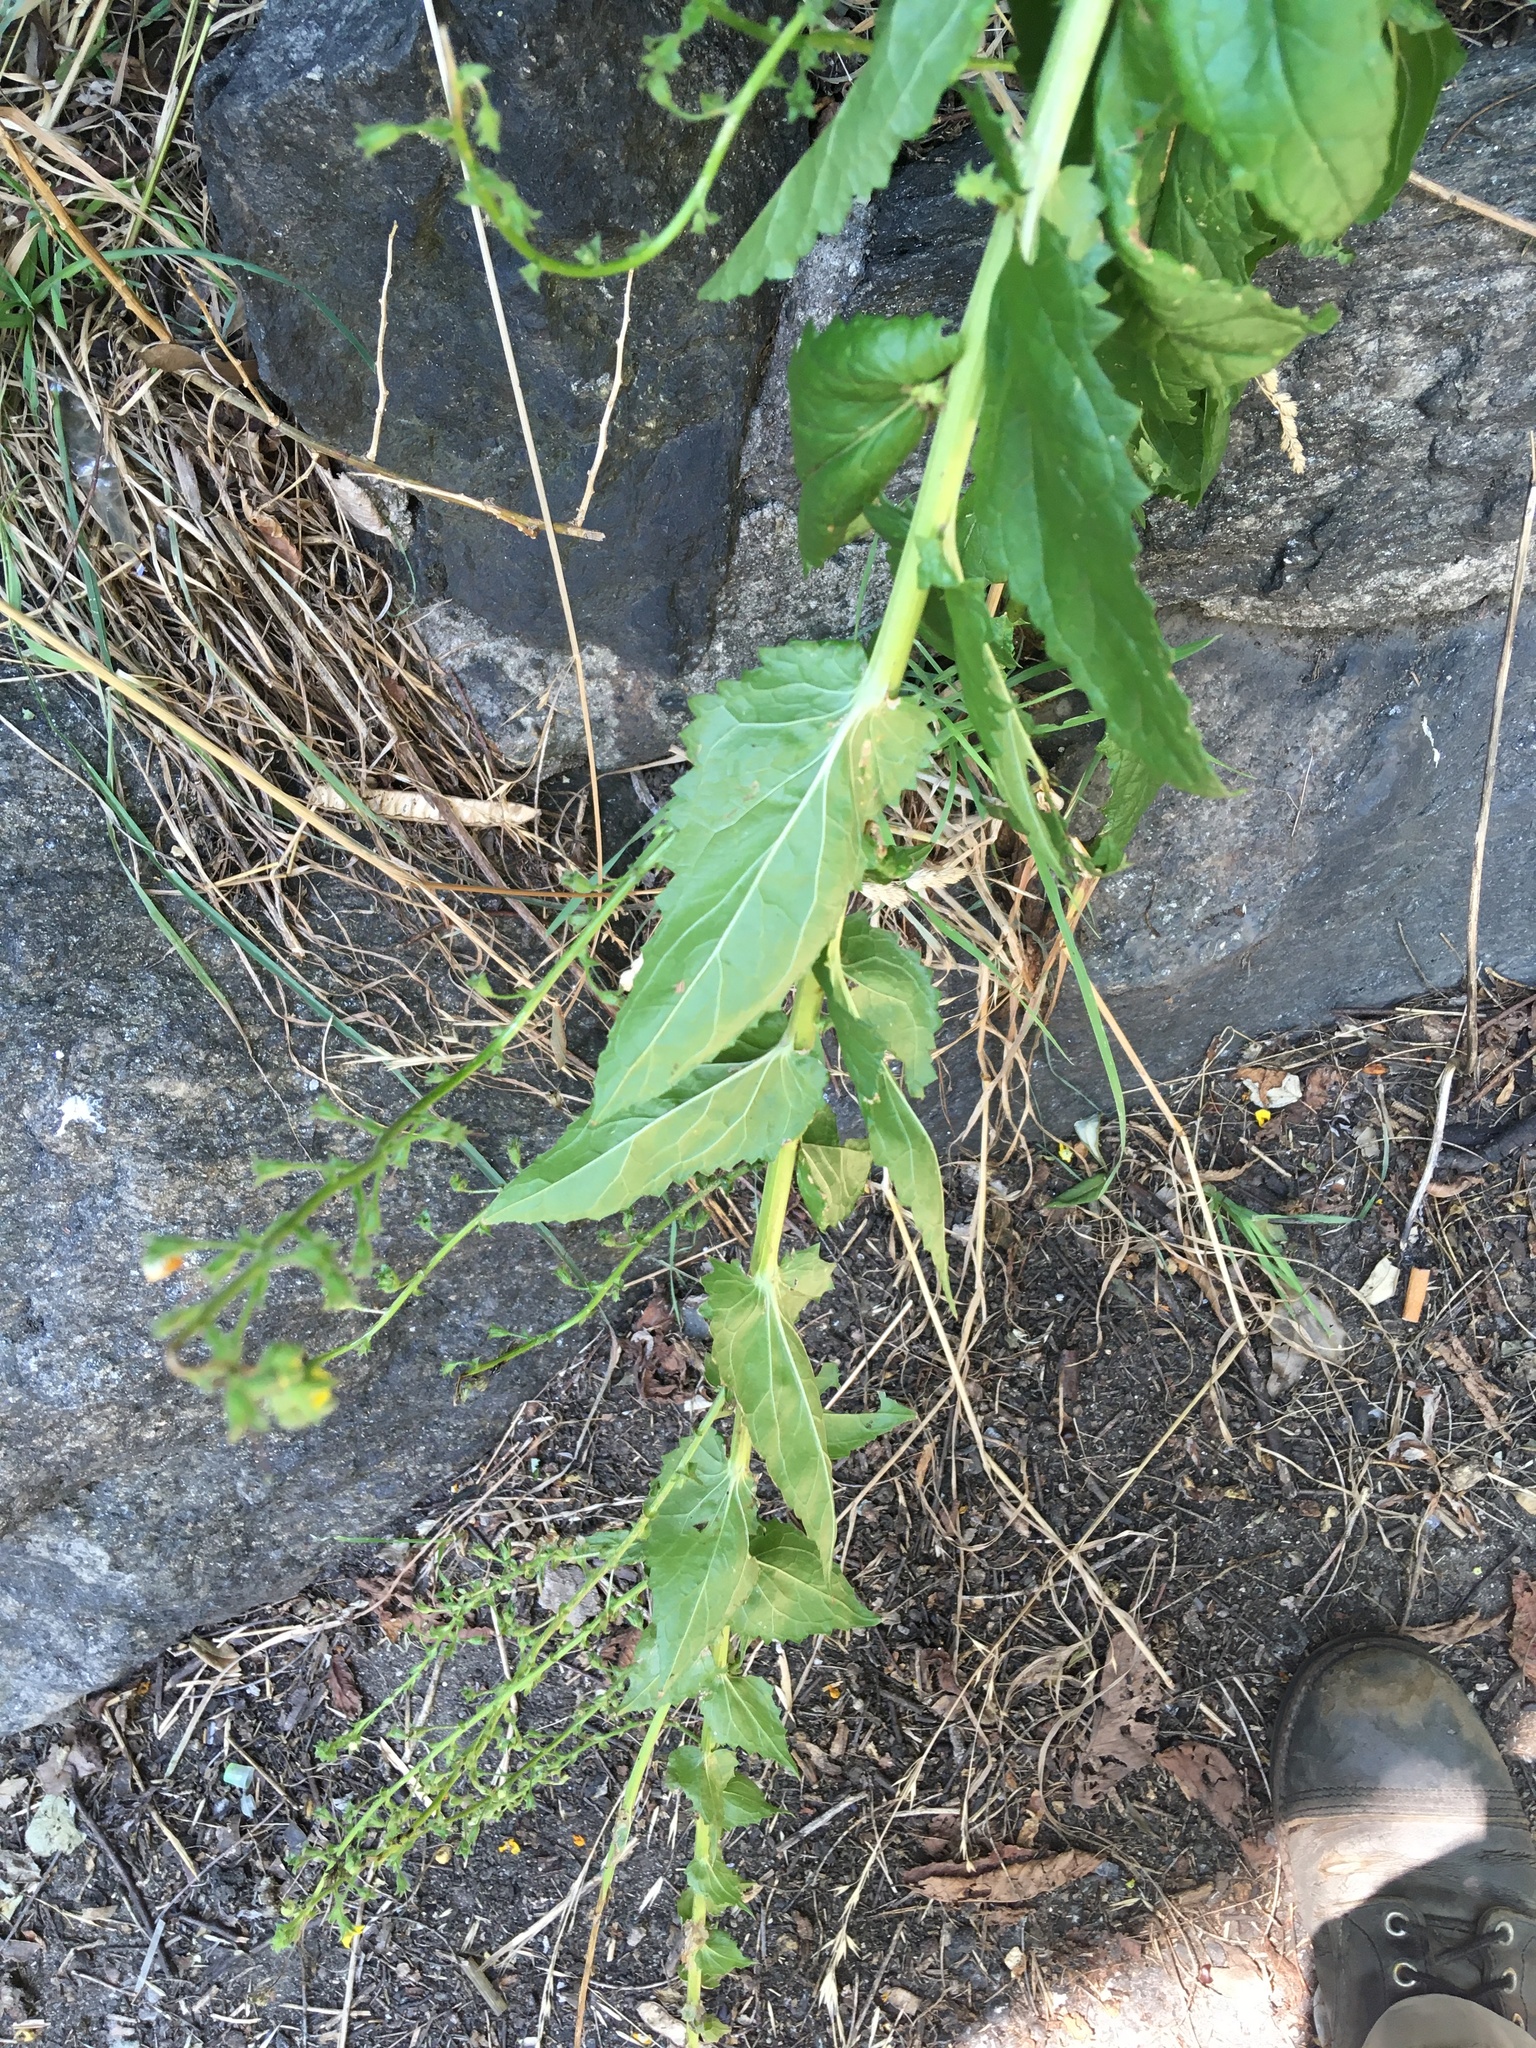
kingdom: Plantae
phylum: Tracheophyta
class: Magnoliopsida
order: Lamiales
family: Scrophulariaceae
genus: Verbascum
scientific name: Verbascum blattaria
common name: Moth mullein
